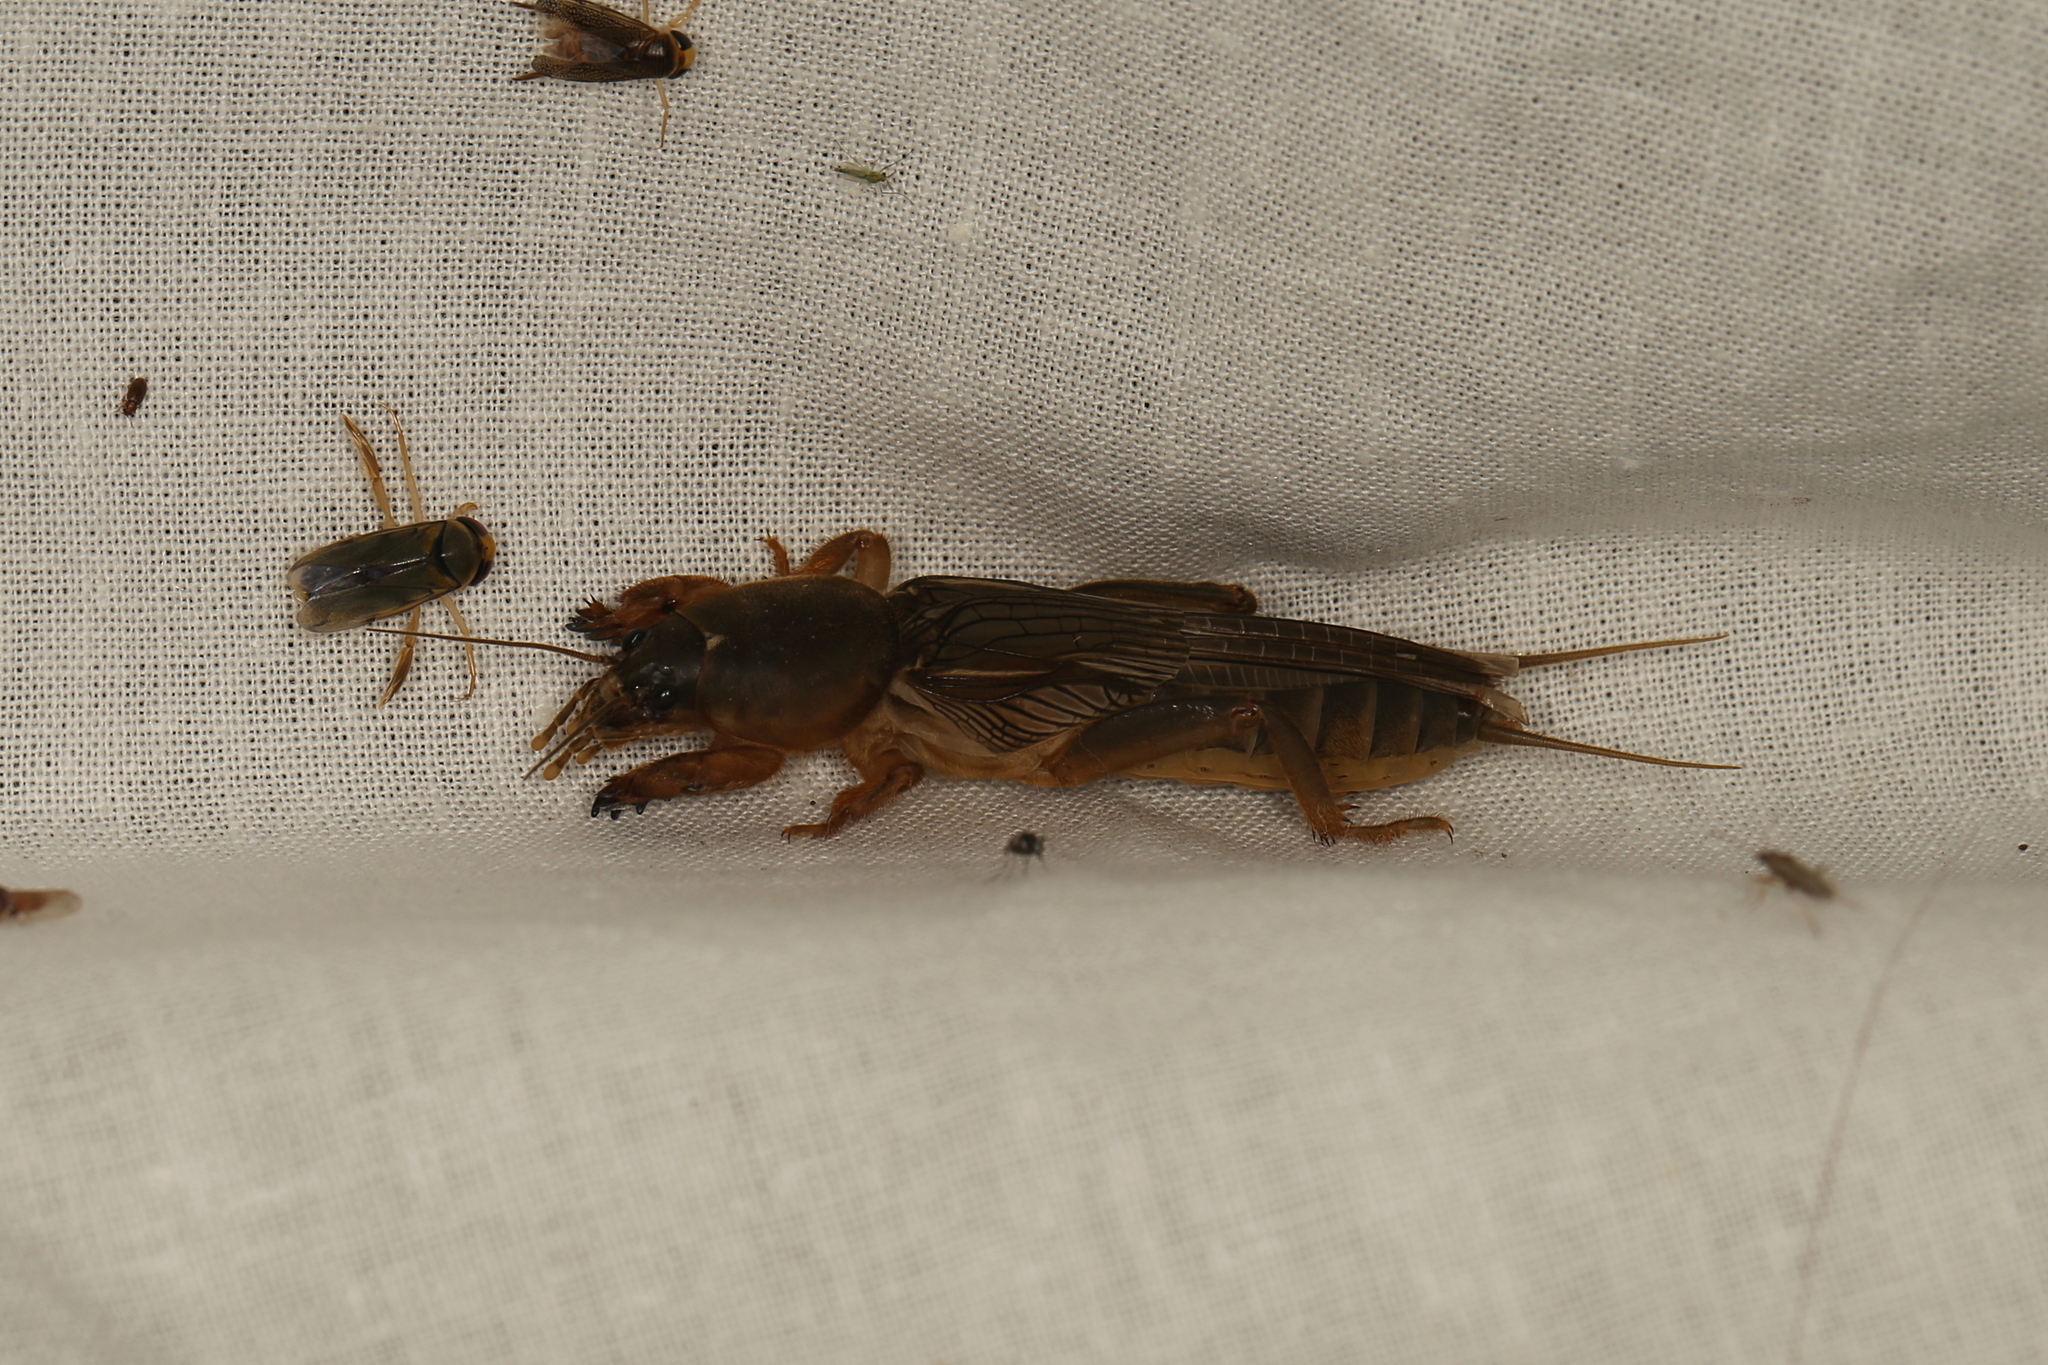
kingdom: Animalia
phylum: Arthropoda
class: Insecta
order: Orthoptera
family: Gryllotalpidae
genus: Gryllotalpa
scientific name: Gryllotalpa australis
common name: Southern mole cricket
